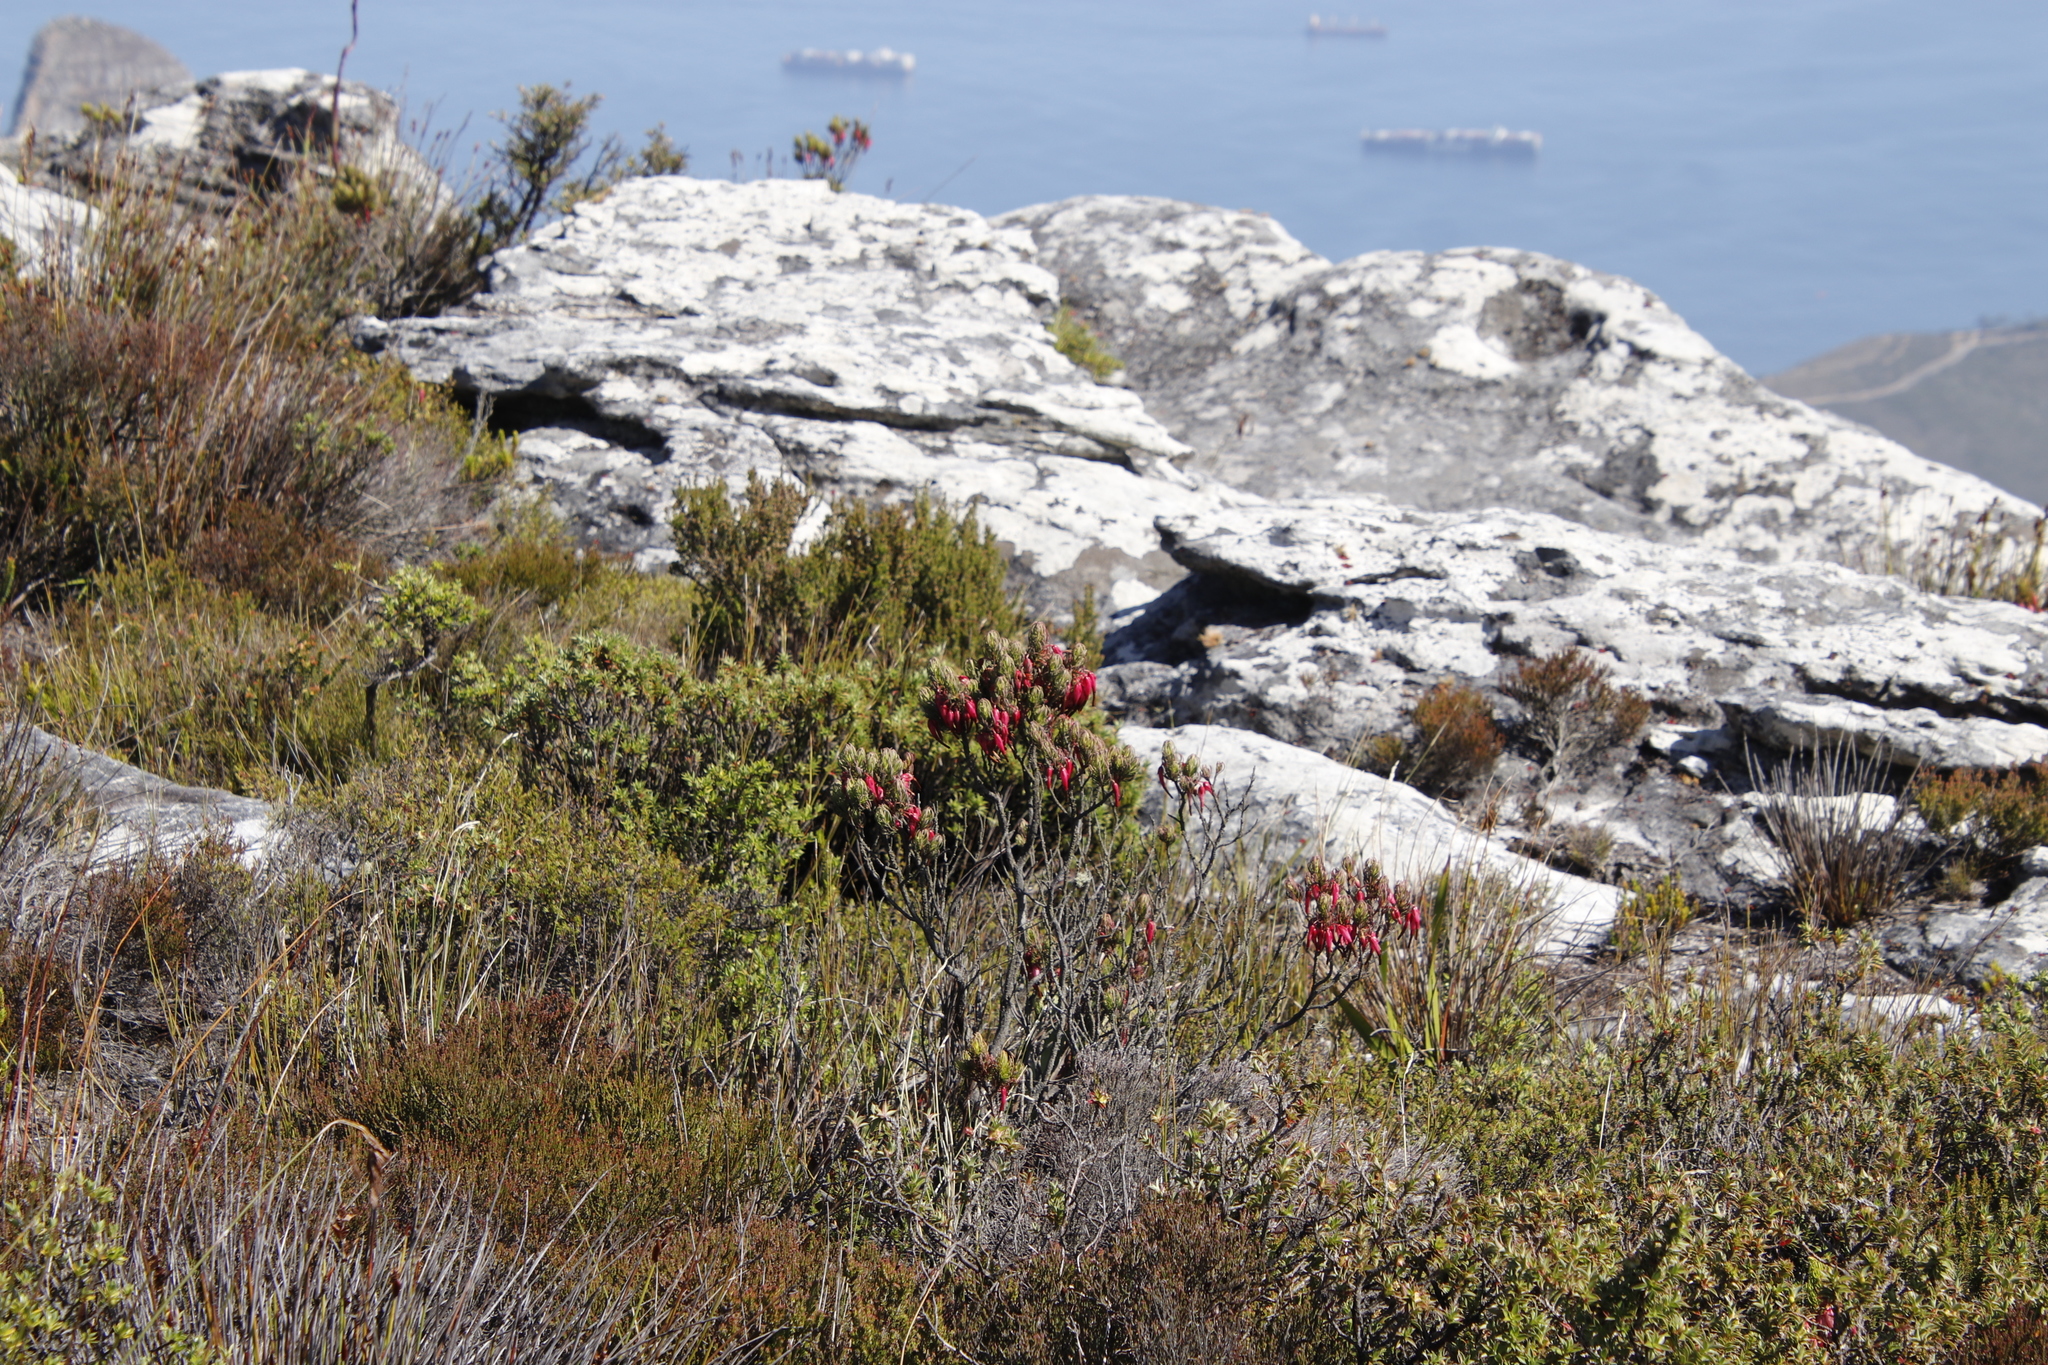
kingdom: Plantae
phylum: Tracheophyta
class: Magnoliopsida
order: Ericales
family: Ericaceae
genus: Erica
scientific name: Erica plukenetii
